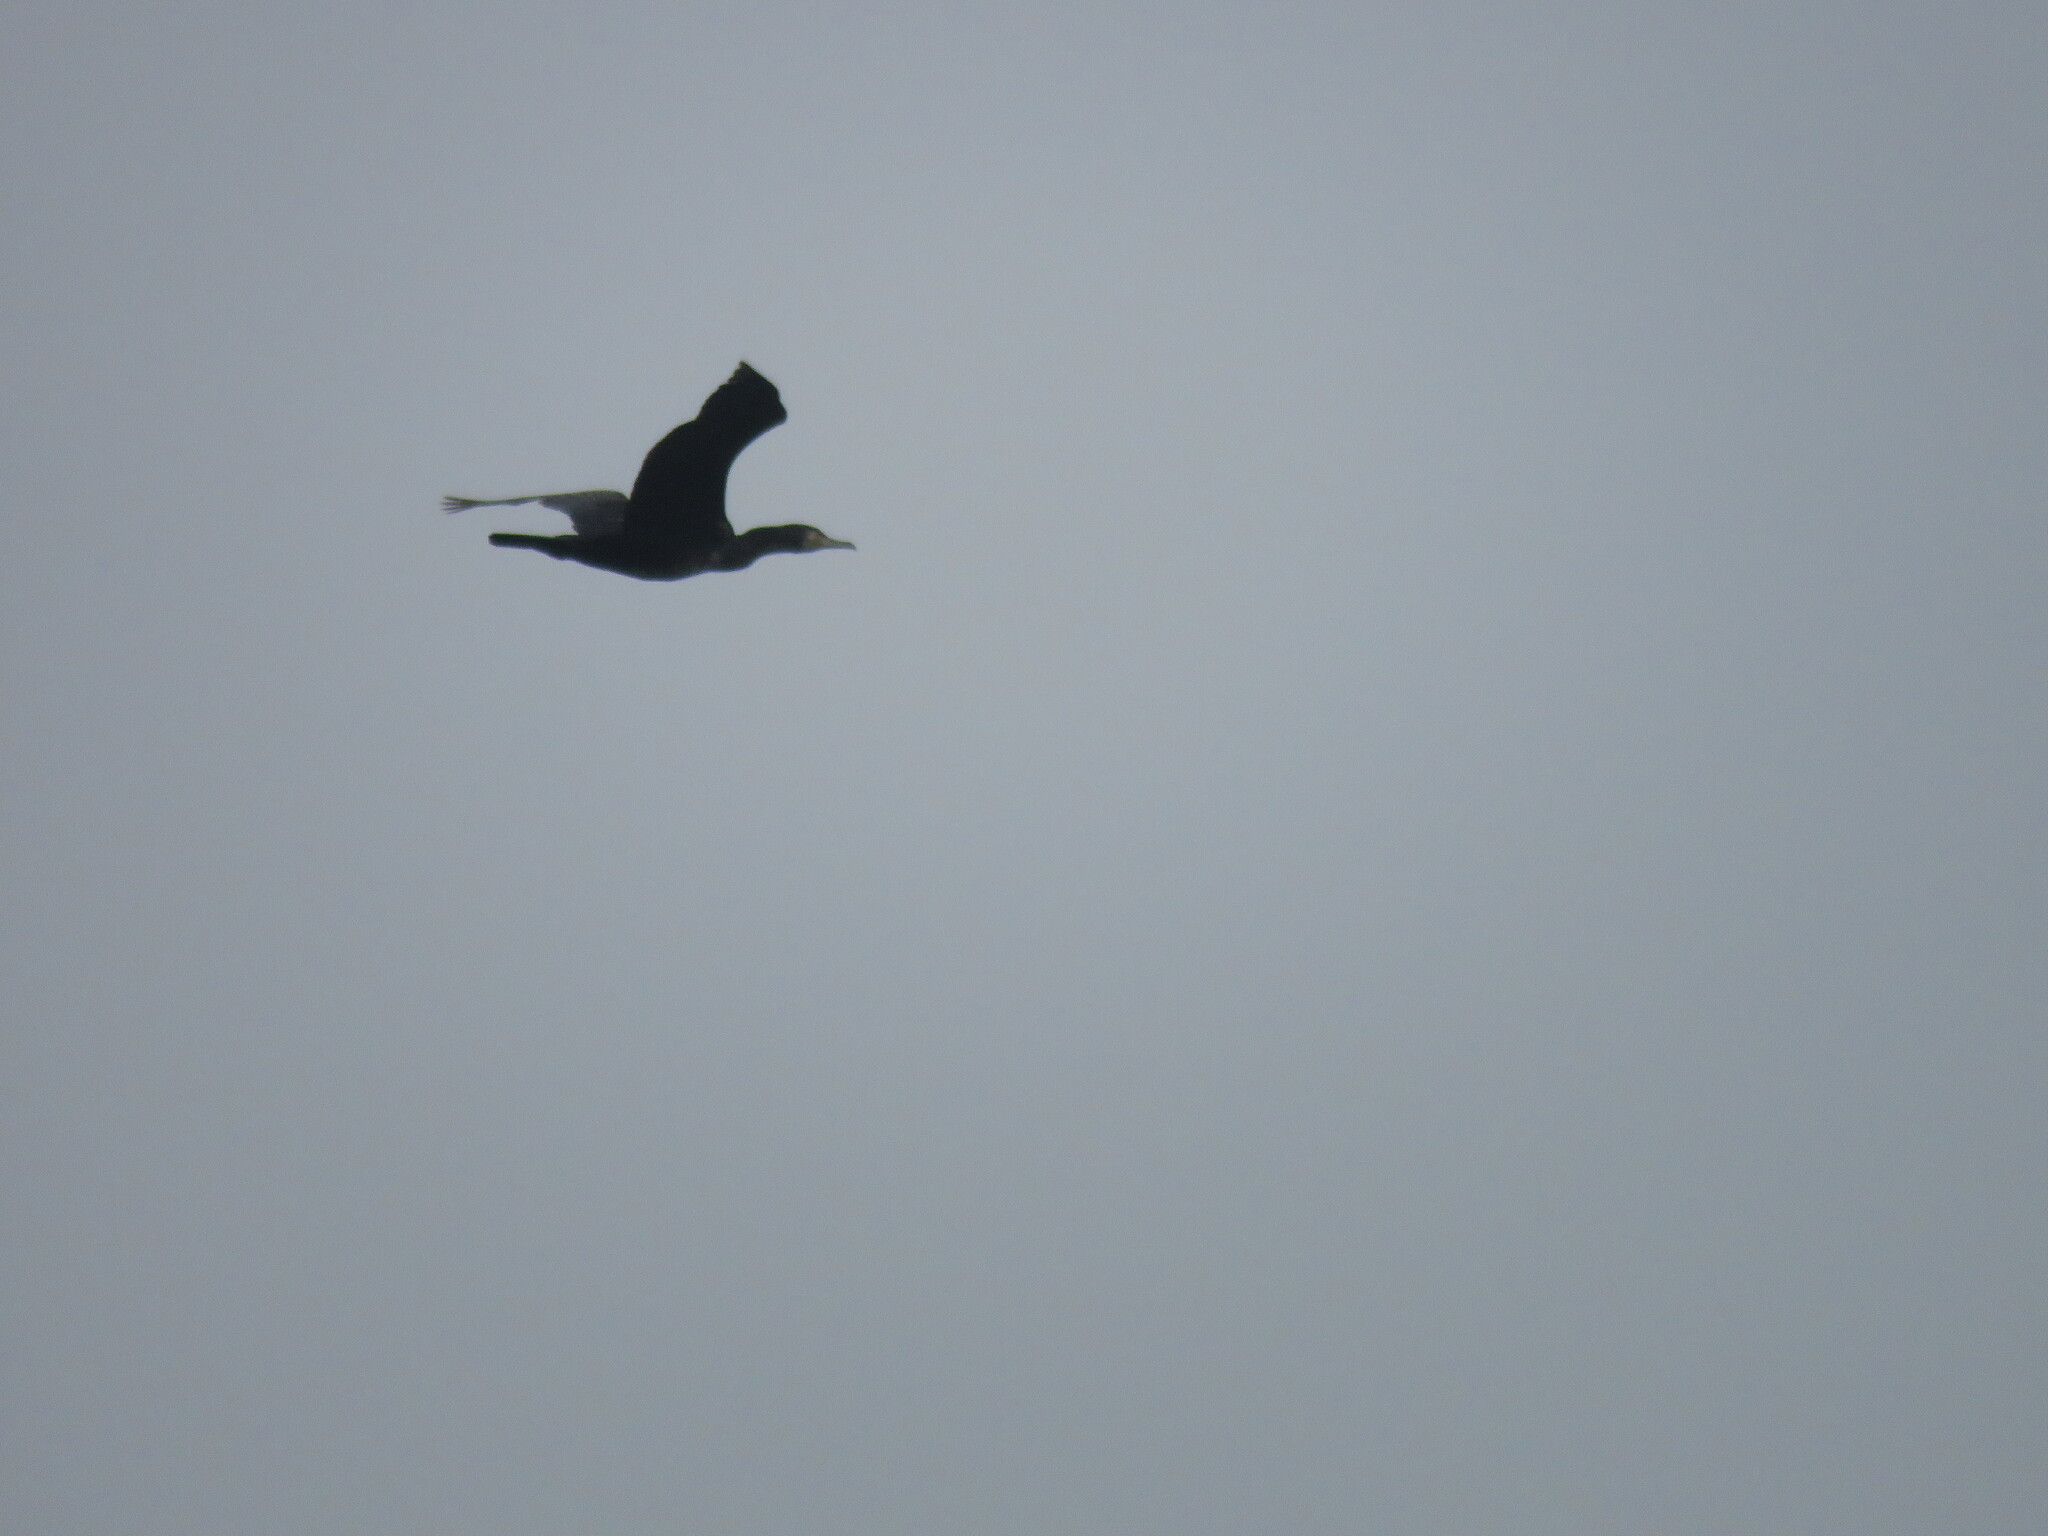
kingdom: Animalia
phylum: Chordata
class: Aves
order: Suliformes
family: Phalacrocoracidae
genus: Phalacrocorax
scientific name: Phalacrocorax carbo
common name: Great cormorant
